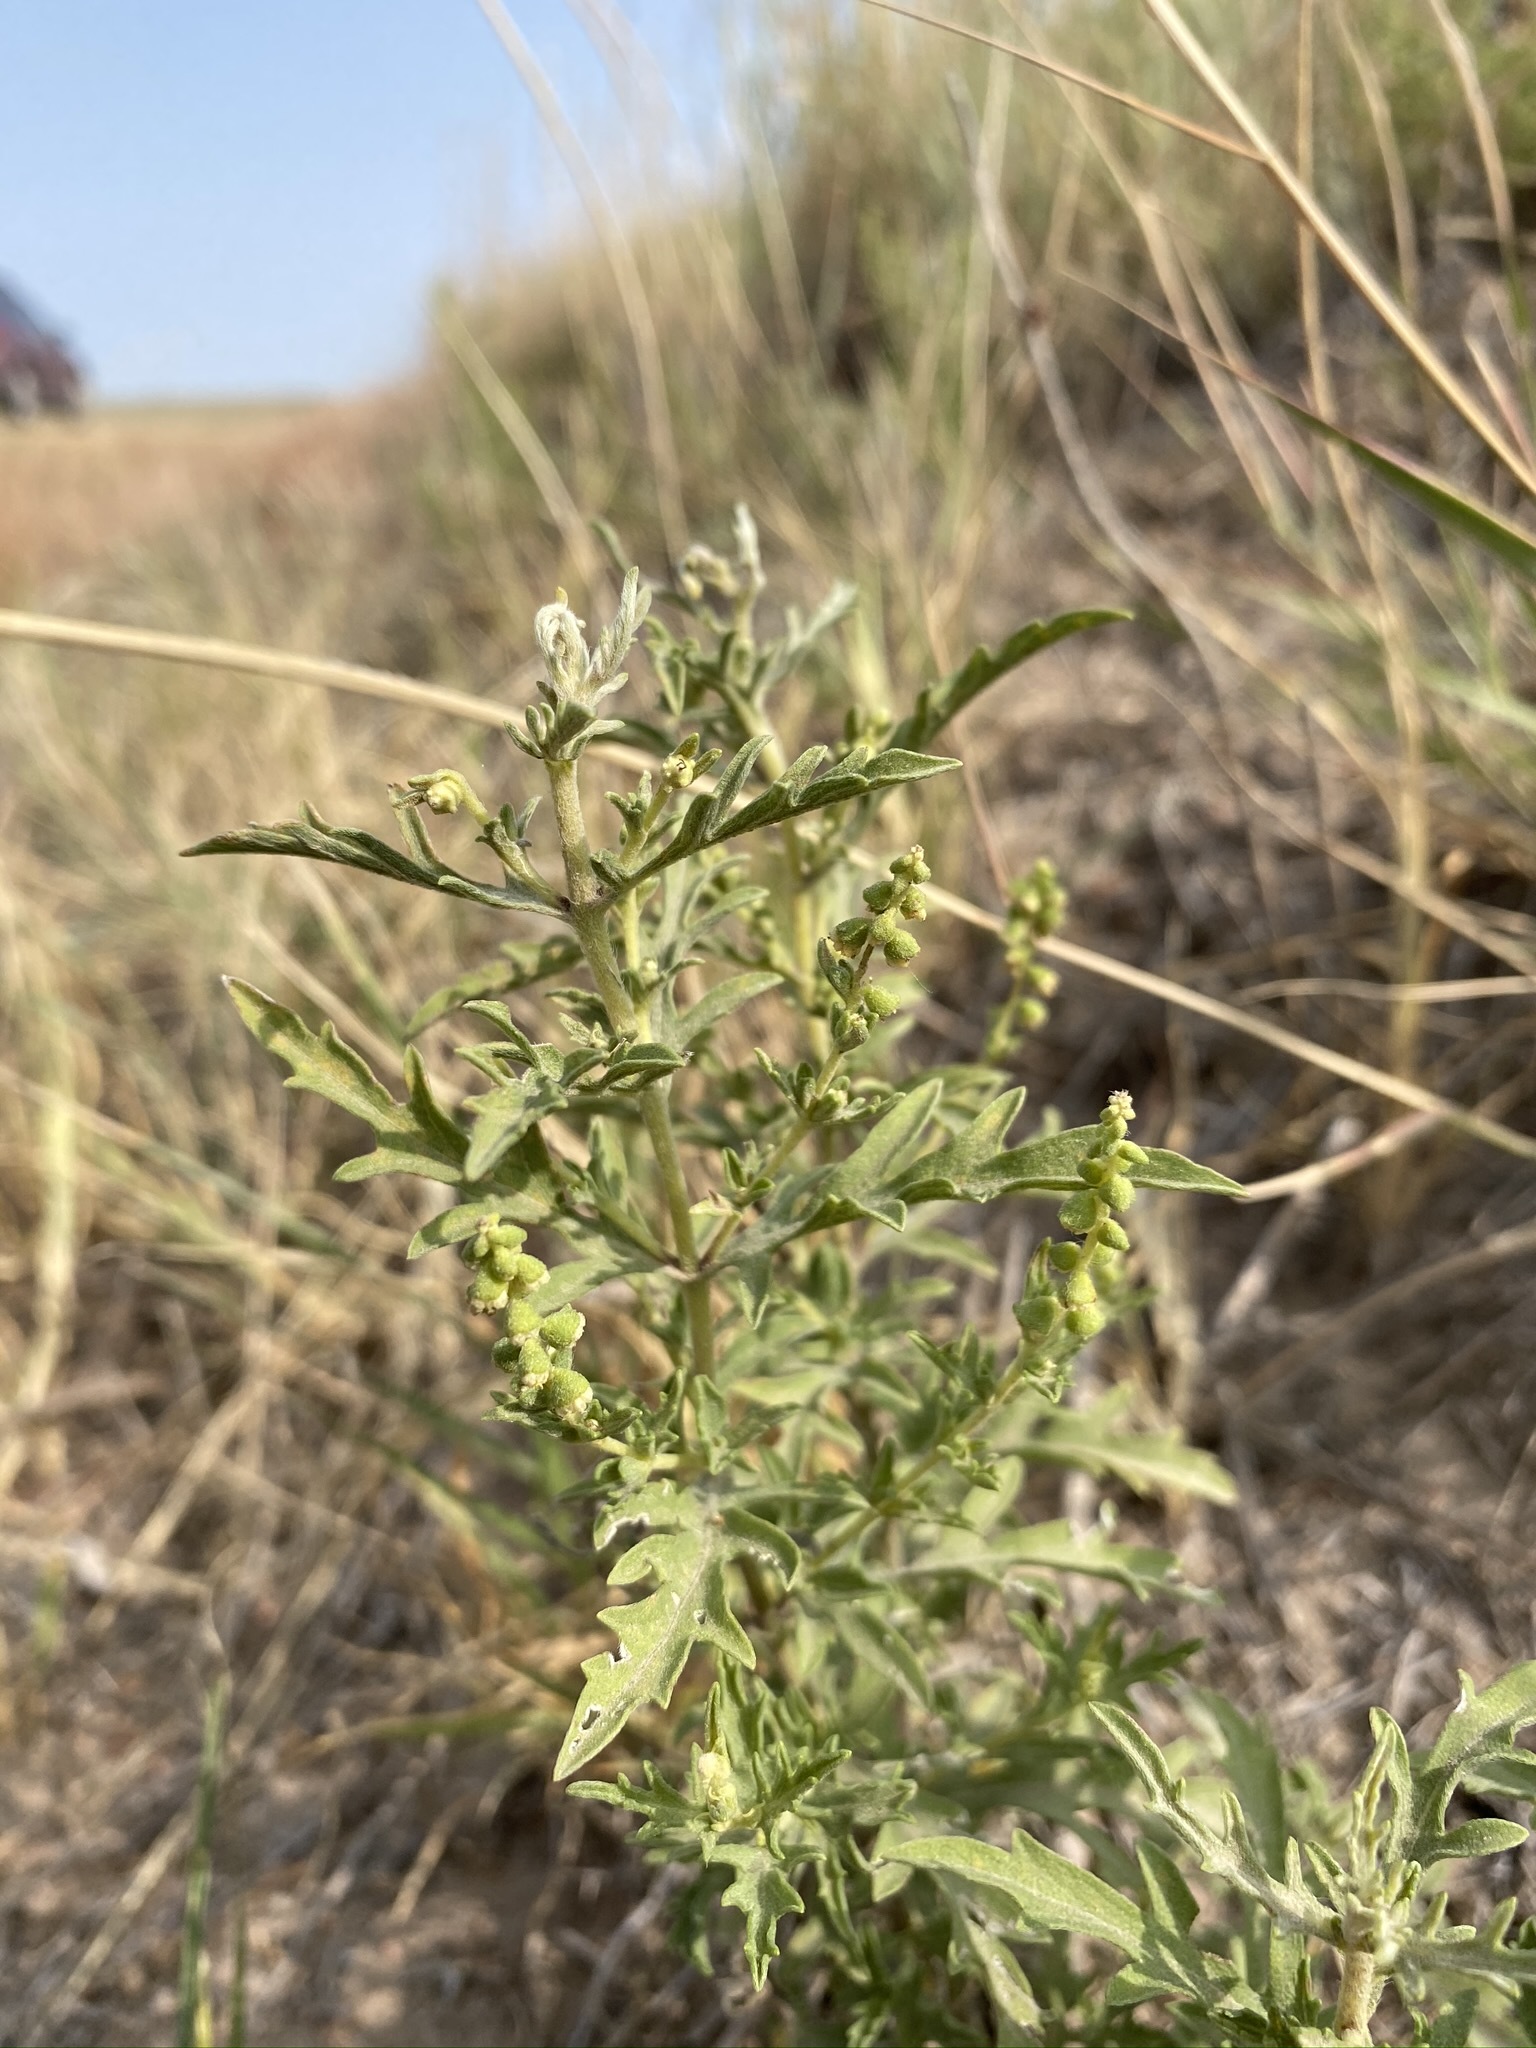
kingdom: Plantae
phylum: Tracheophyta
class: Magnoliopsida
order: Asterales
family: Asteraceae
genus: Ambrosia
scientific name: Ambrosia psilostachya
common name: Perennial ragweed
